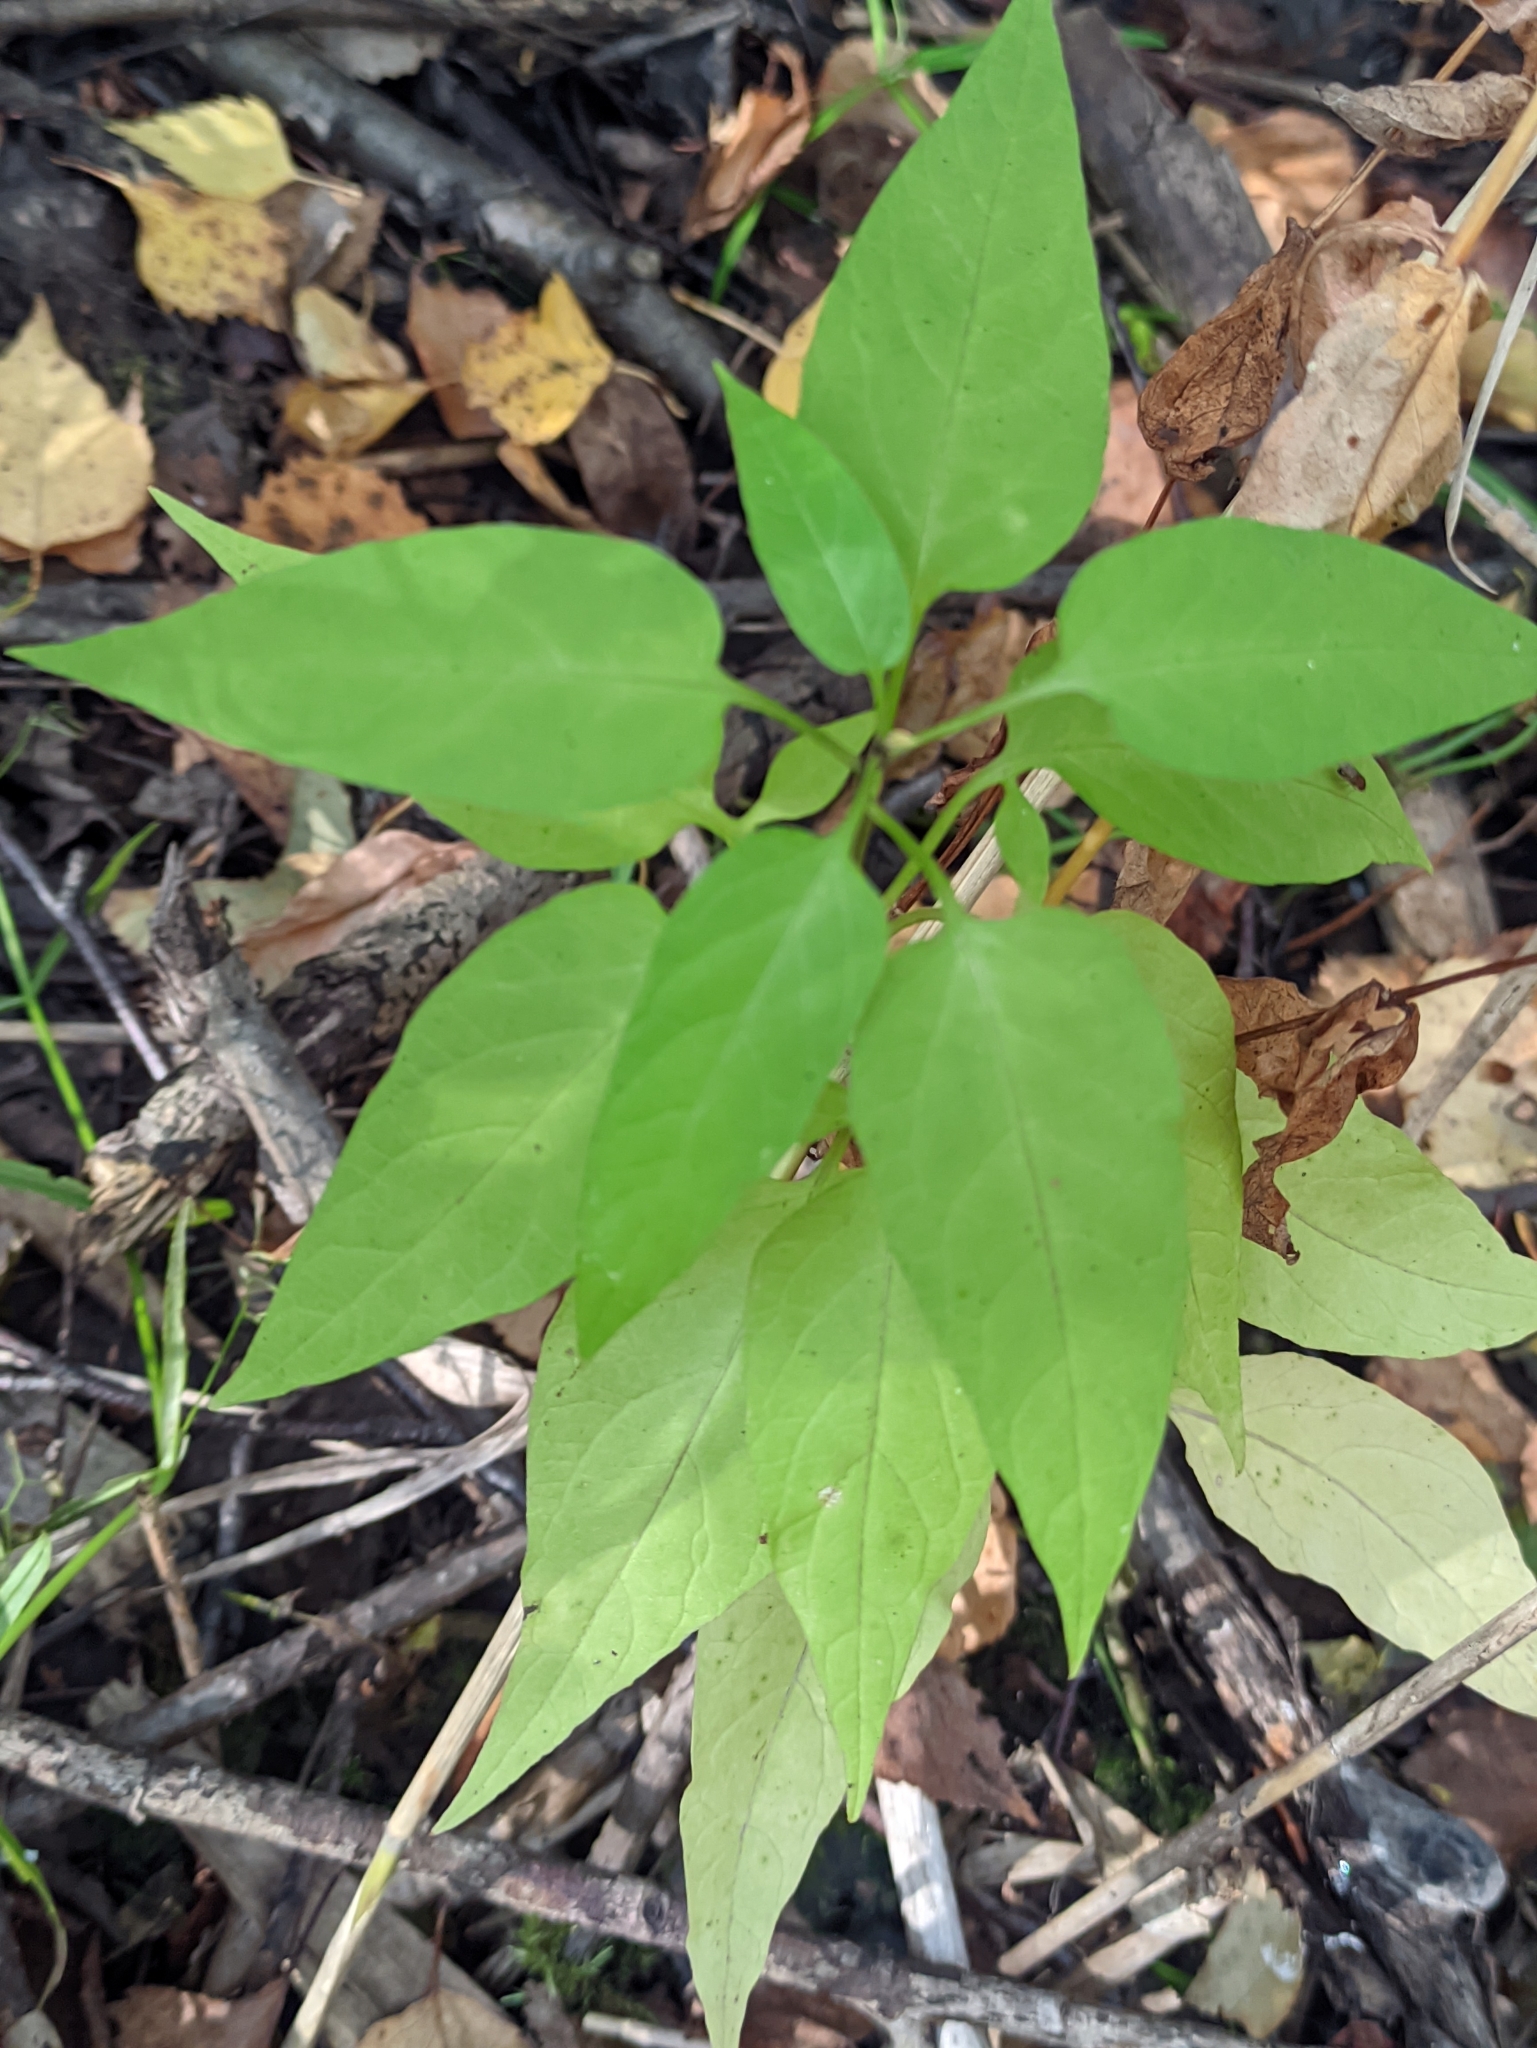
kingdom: Plantae
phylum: Tracheophyta
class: Magnoliopsida
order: Solanales
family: Solanaceae
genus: Solanum
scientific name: Solanum dulcamara
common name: Climbing nightshade
